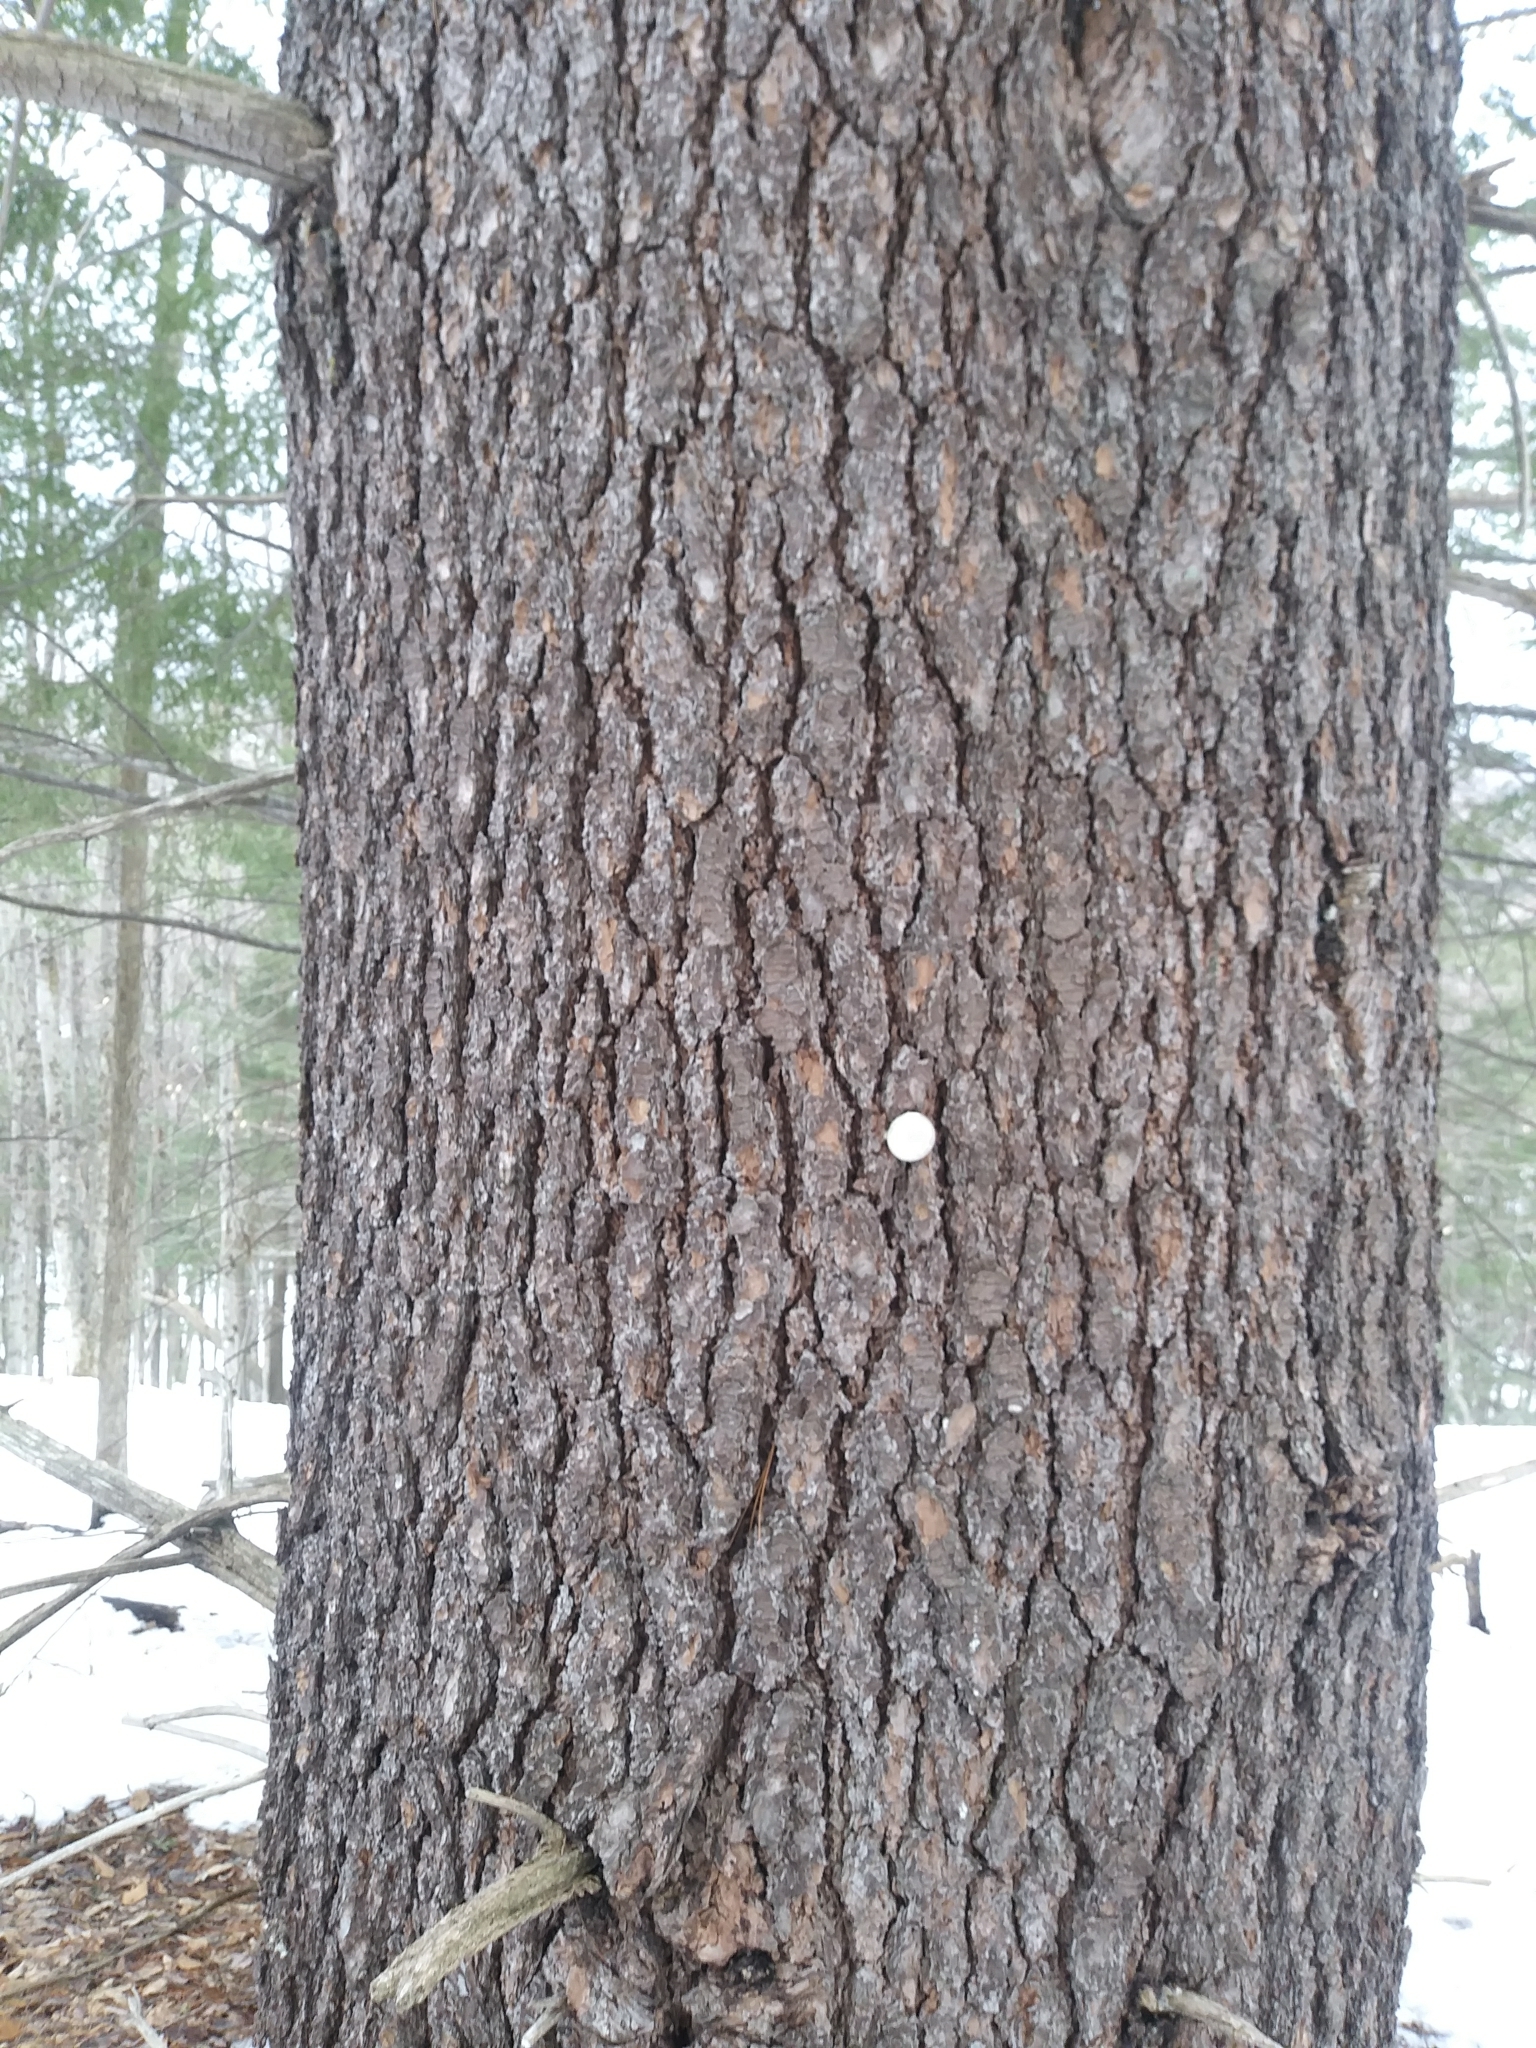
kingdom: Plantae
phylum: Tracheophyta
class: Pinopsida
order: Pinales
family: Pinaceae
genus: Pinus
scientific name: Pinus strobus
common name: Weymouth pine
